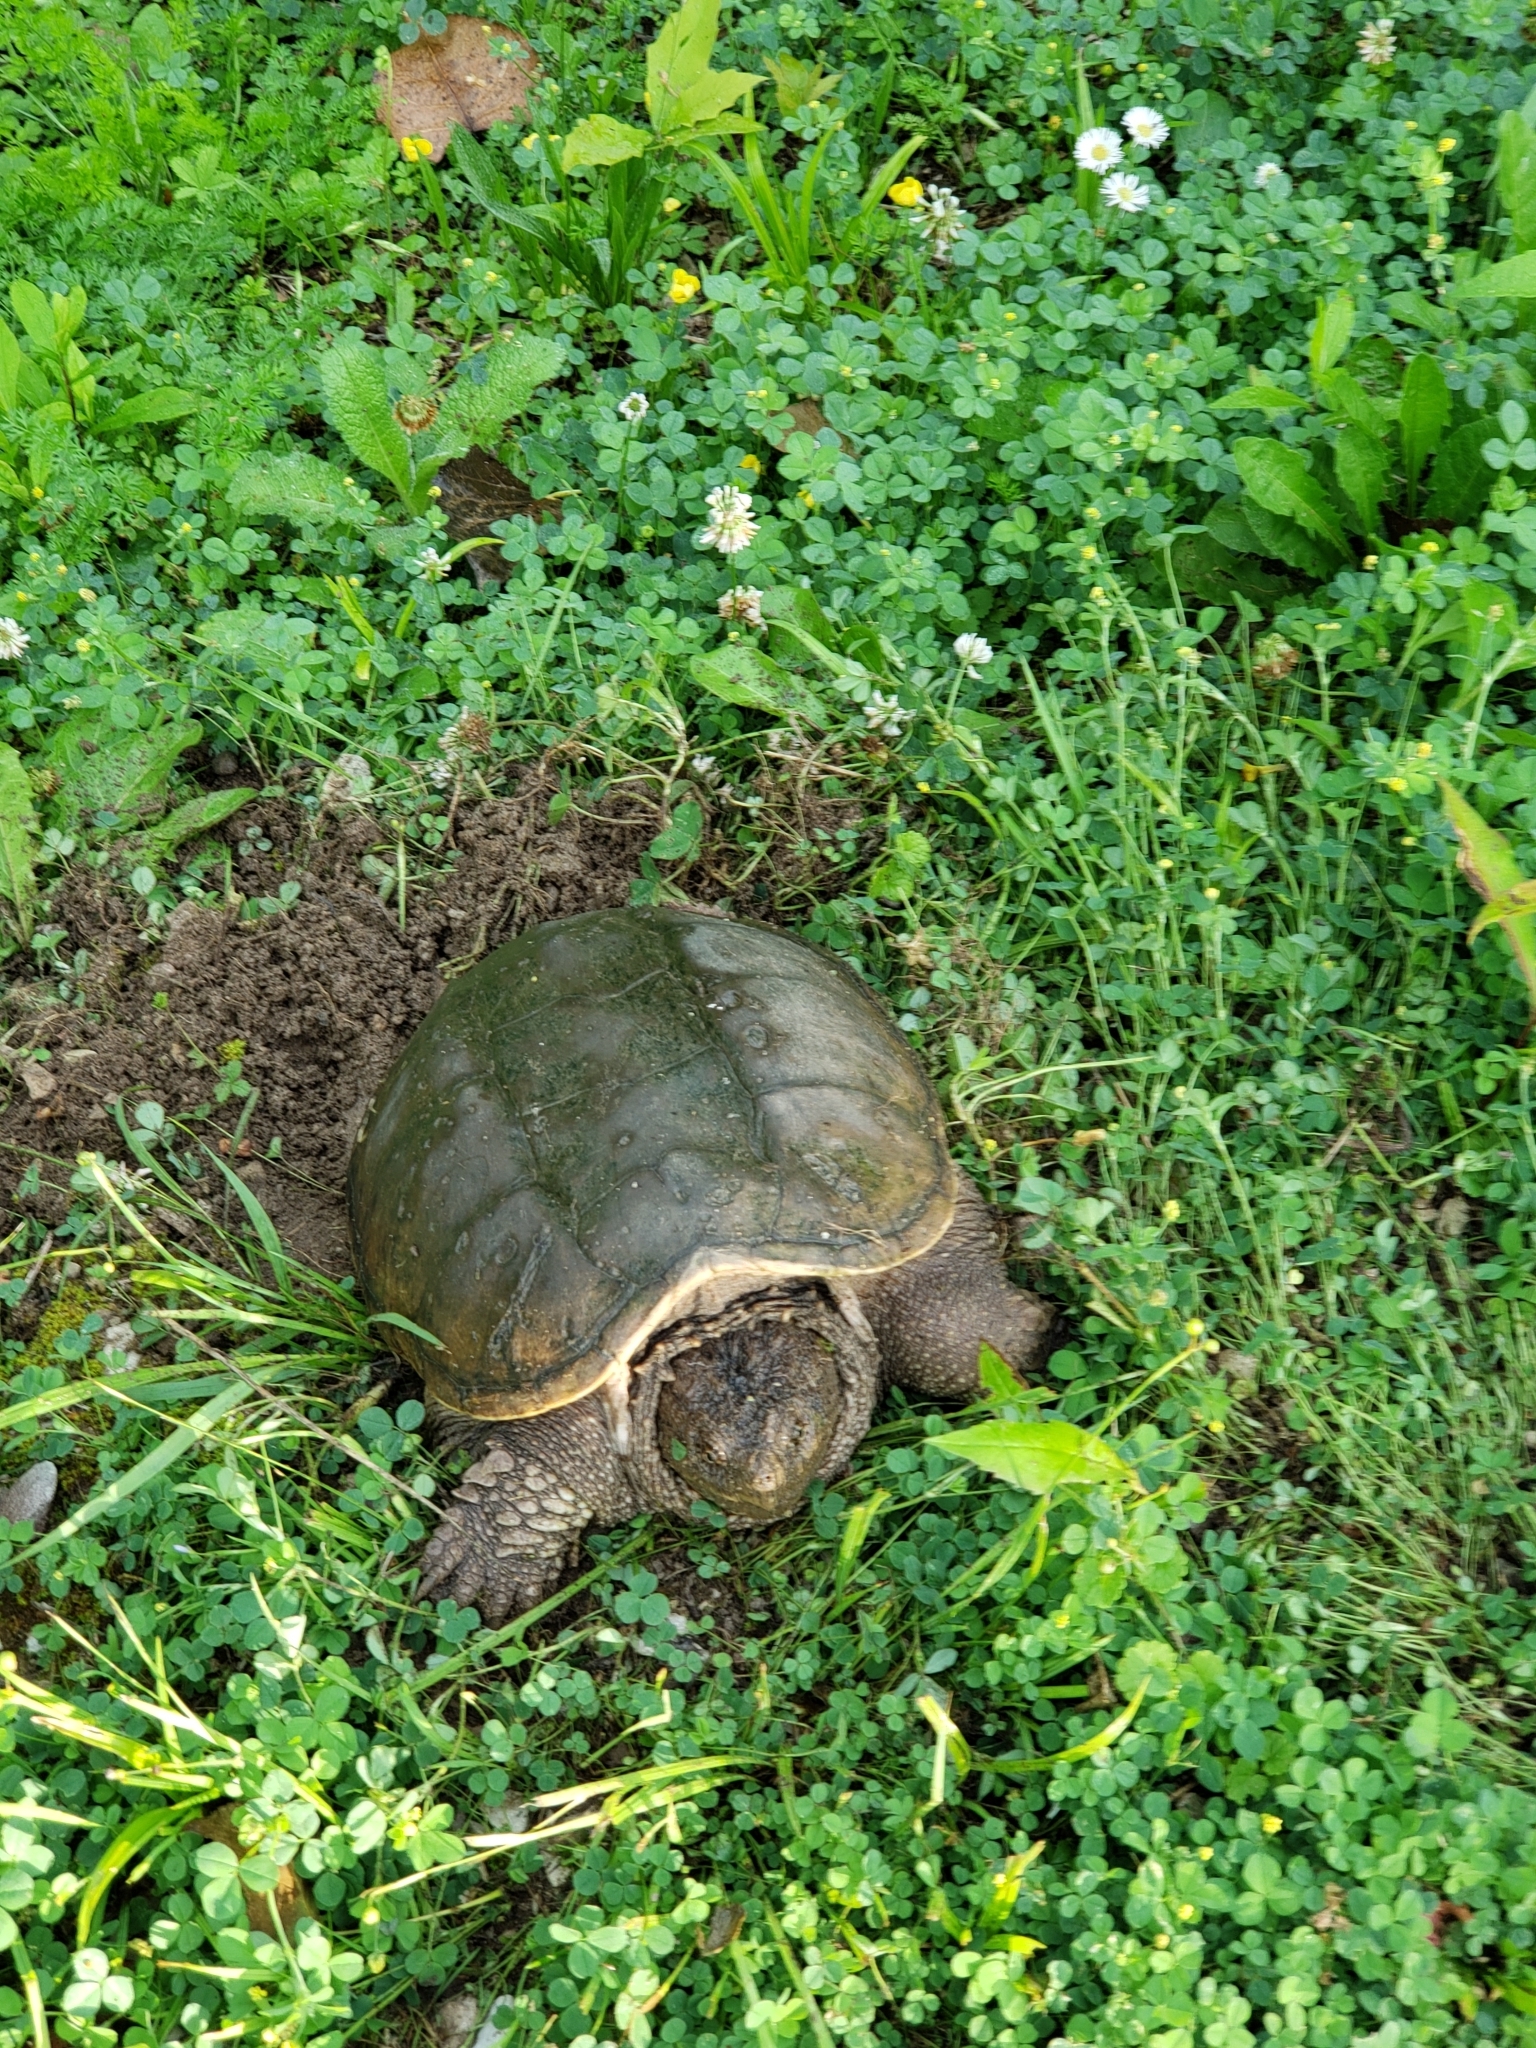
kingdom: Animalia
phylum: Chordata
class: Testudines
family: Chelydridae
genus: Chelydra
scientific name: Chelydra serpentina
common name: Common snapping turtle
